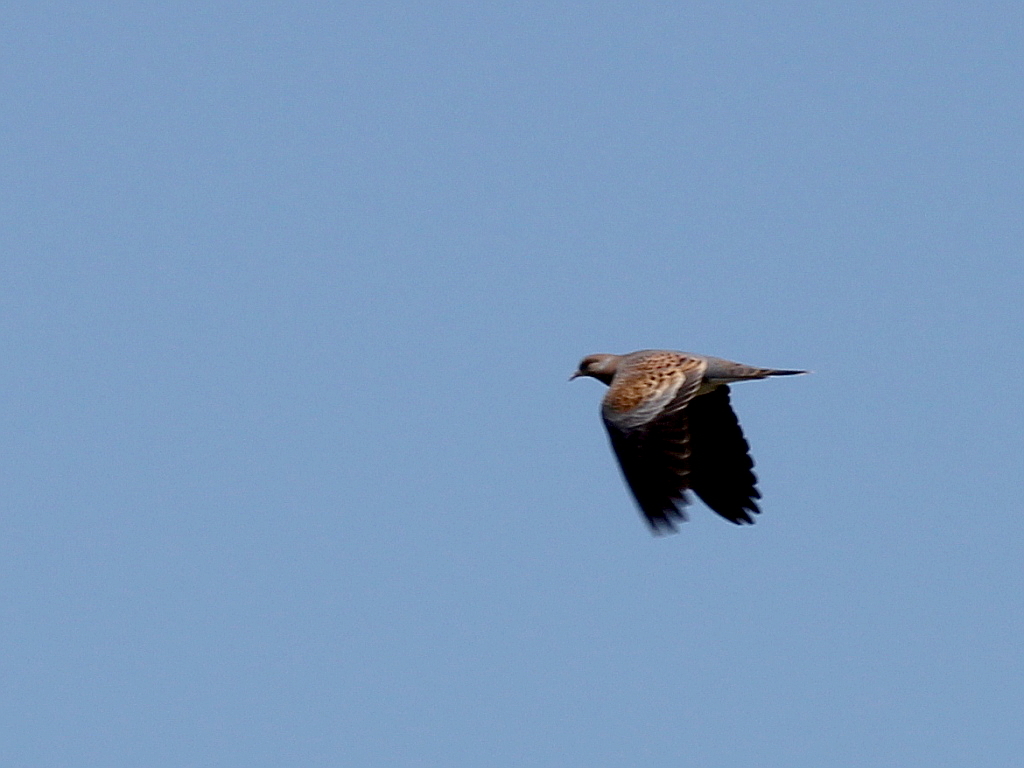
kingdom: Animalia
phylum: Chordata
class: Aves
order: Columbiformes
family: Columbidae
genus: Streptopelia
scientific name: Streptopelia orientalis
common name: Oriental turtle dove
